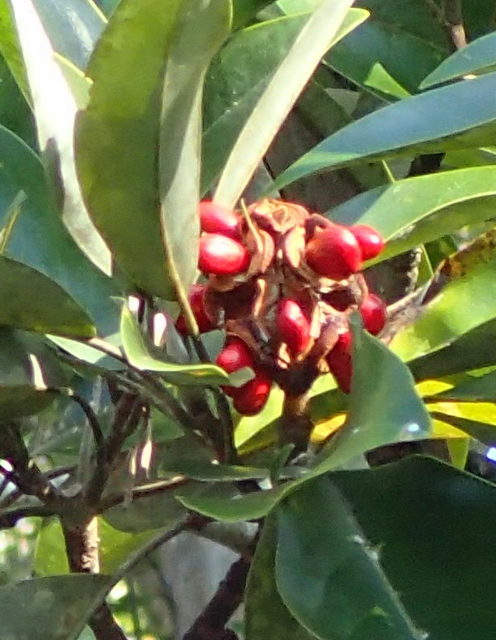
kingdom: Plantae
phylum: Tracheophyta
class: Magnoliopsida
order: Magnoliales
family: Magnoliaceae
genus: Magnolia
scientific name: Magnolia virginiana
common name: Swamp bay
